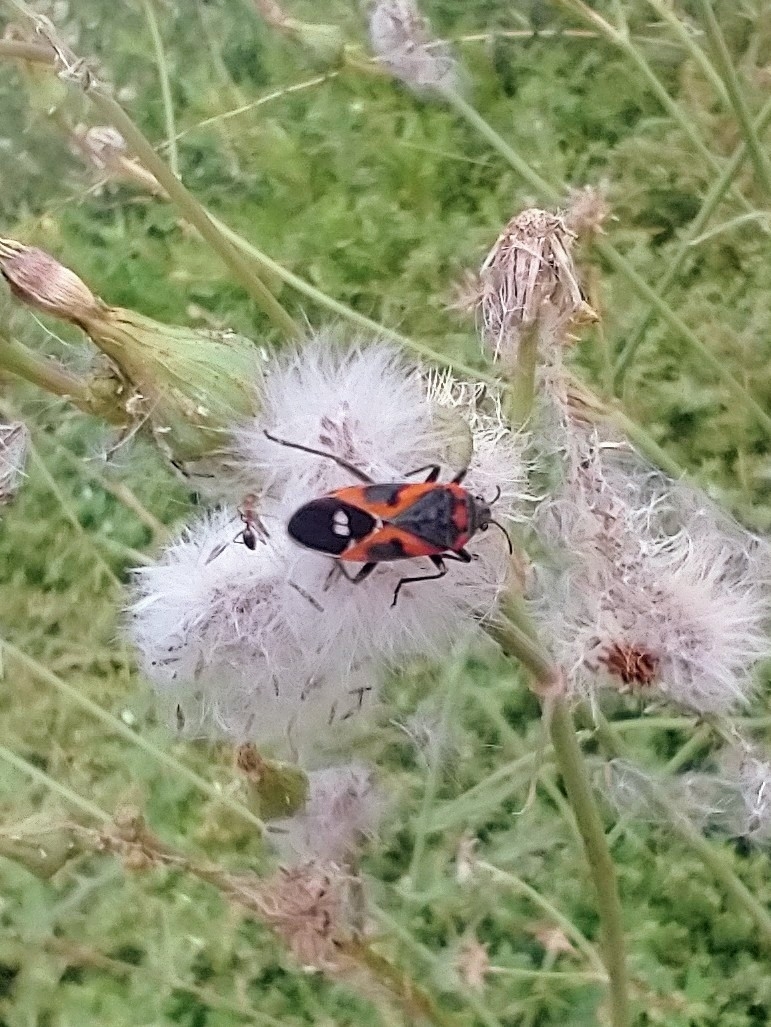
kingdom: Animalia
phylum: Arthropoda
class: Insecta
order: Hemiptera
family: Lygaeidae
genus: Lygaeus
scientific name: Lygaeus kalmii
